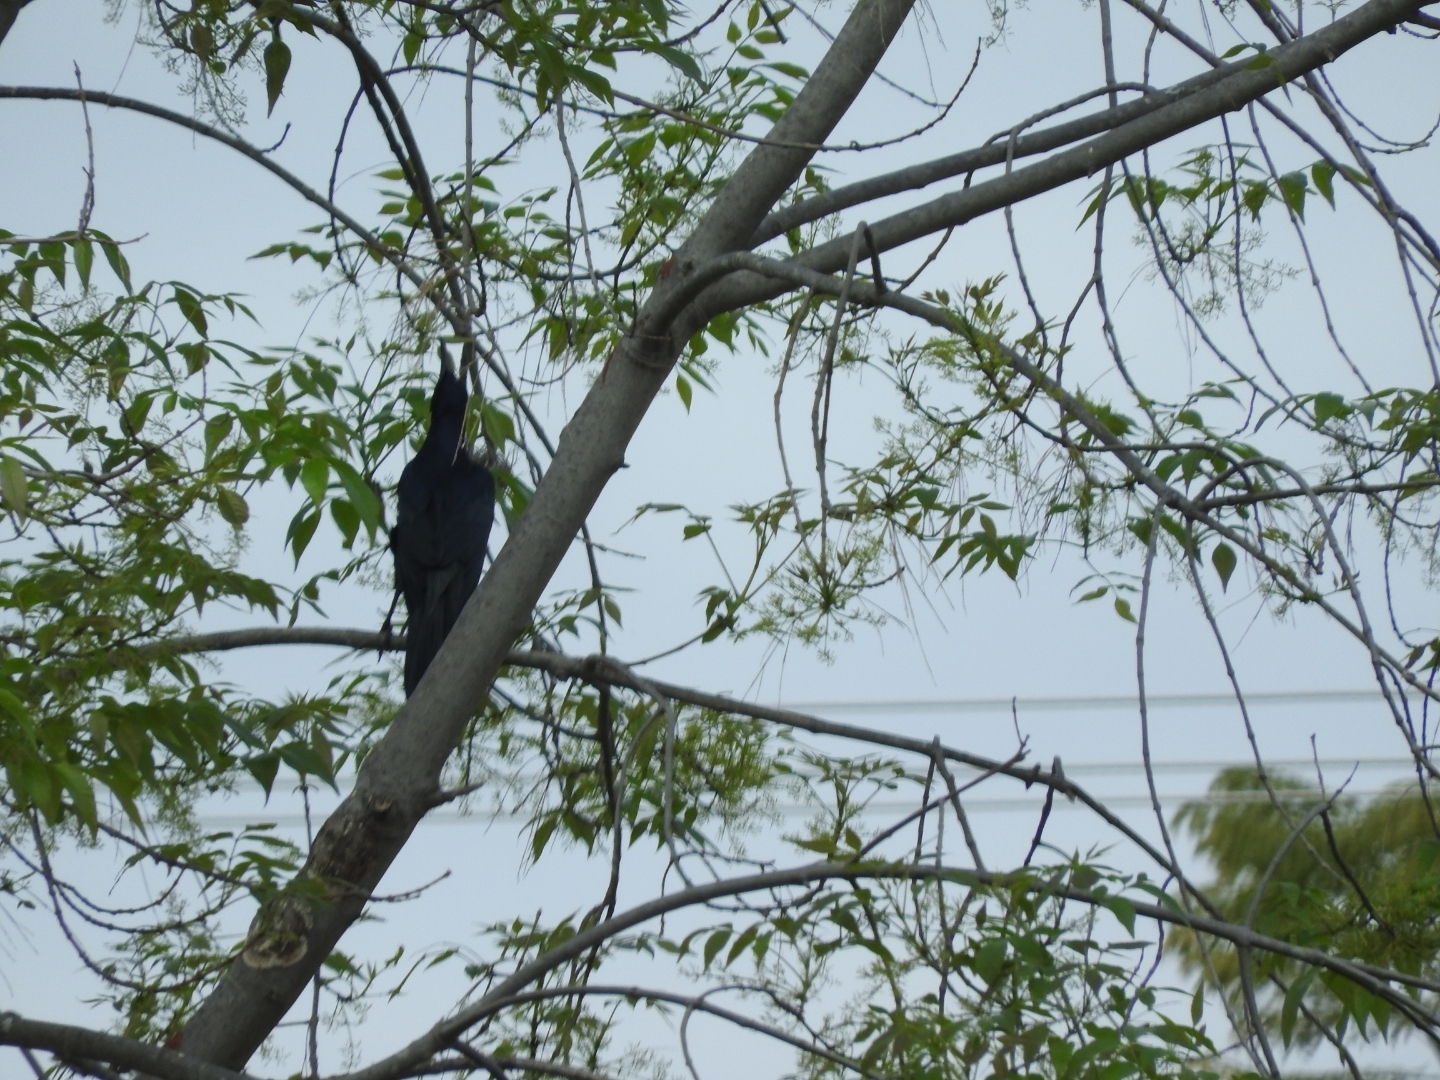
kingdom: Animalia
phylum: Chordata
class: Aves
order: Passeriformes
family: Icteridae
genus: Quiscalus
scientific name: Quiscalus mexicanus
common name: Great-tailed grackle
